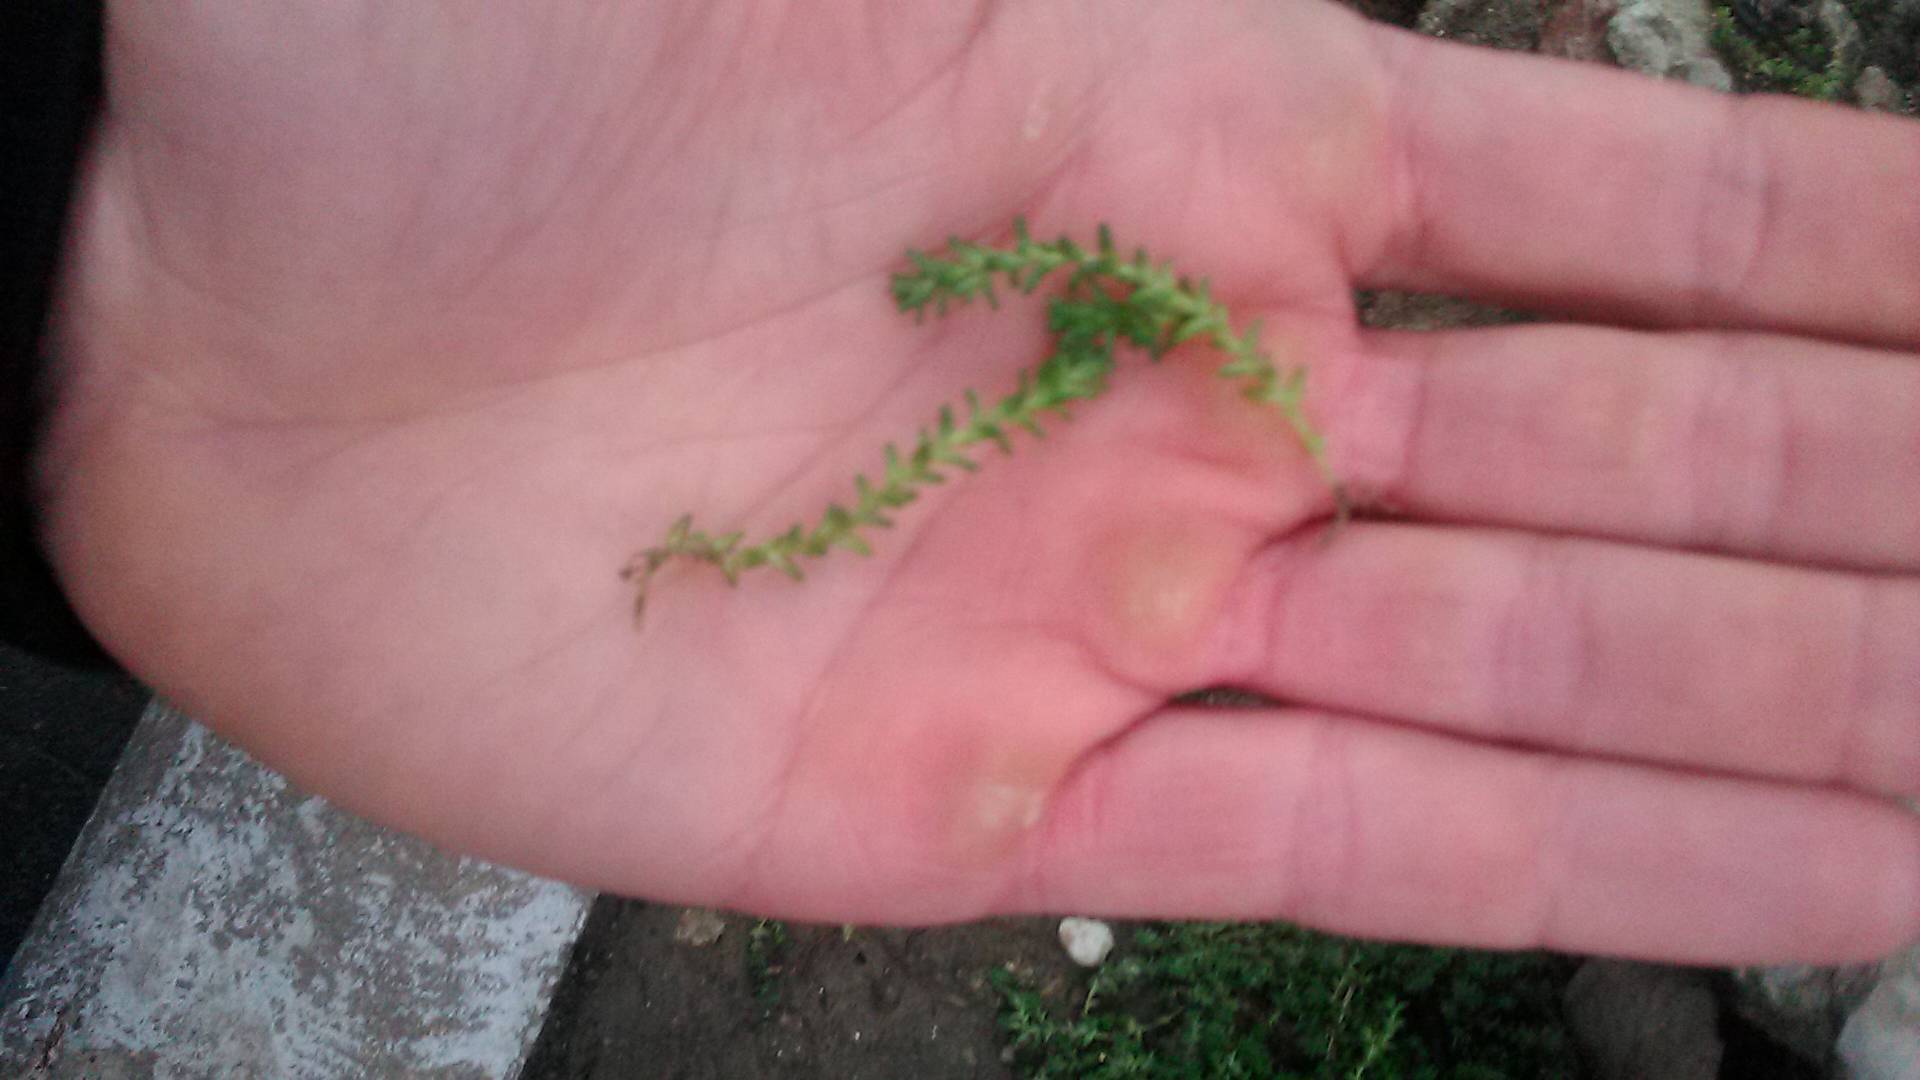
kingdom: Plantae
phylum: Tracheophyta
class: Magnoliopsida
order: Saxifragales
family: Crassulaceae
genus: Sedum
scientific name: Sedum acre
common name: Biting stonecrop
